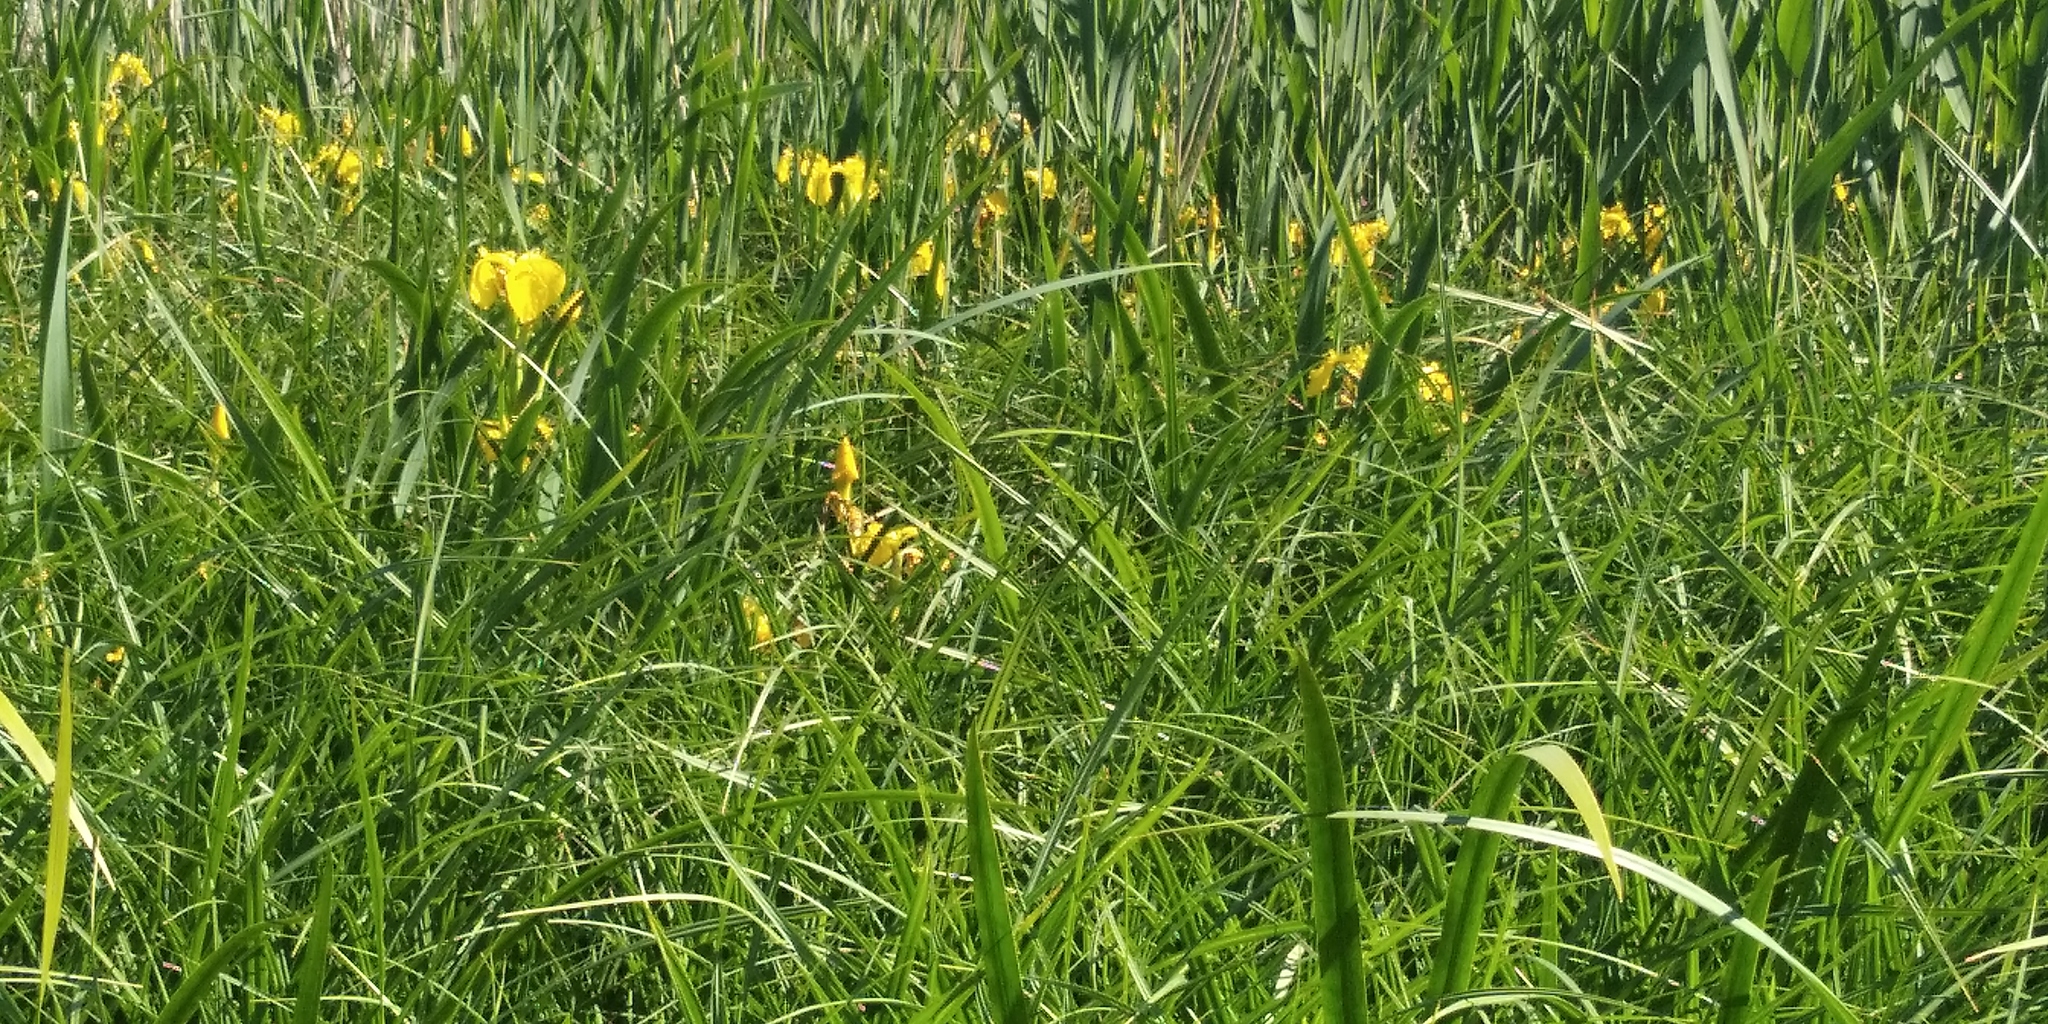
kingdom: Plantae
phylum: Tracheophyta
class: Liliopsida
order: Asparagales
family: Iridaceae
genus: Iris
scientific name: Iris pseudacorus
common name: Yellow flag
